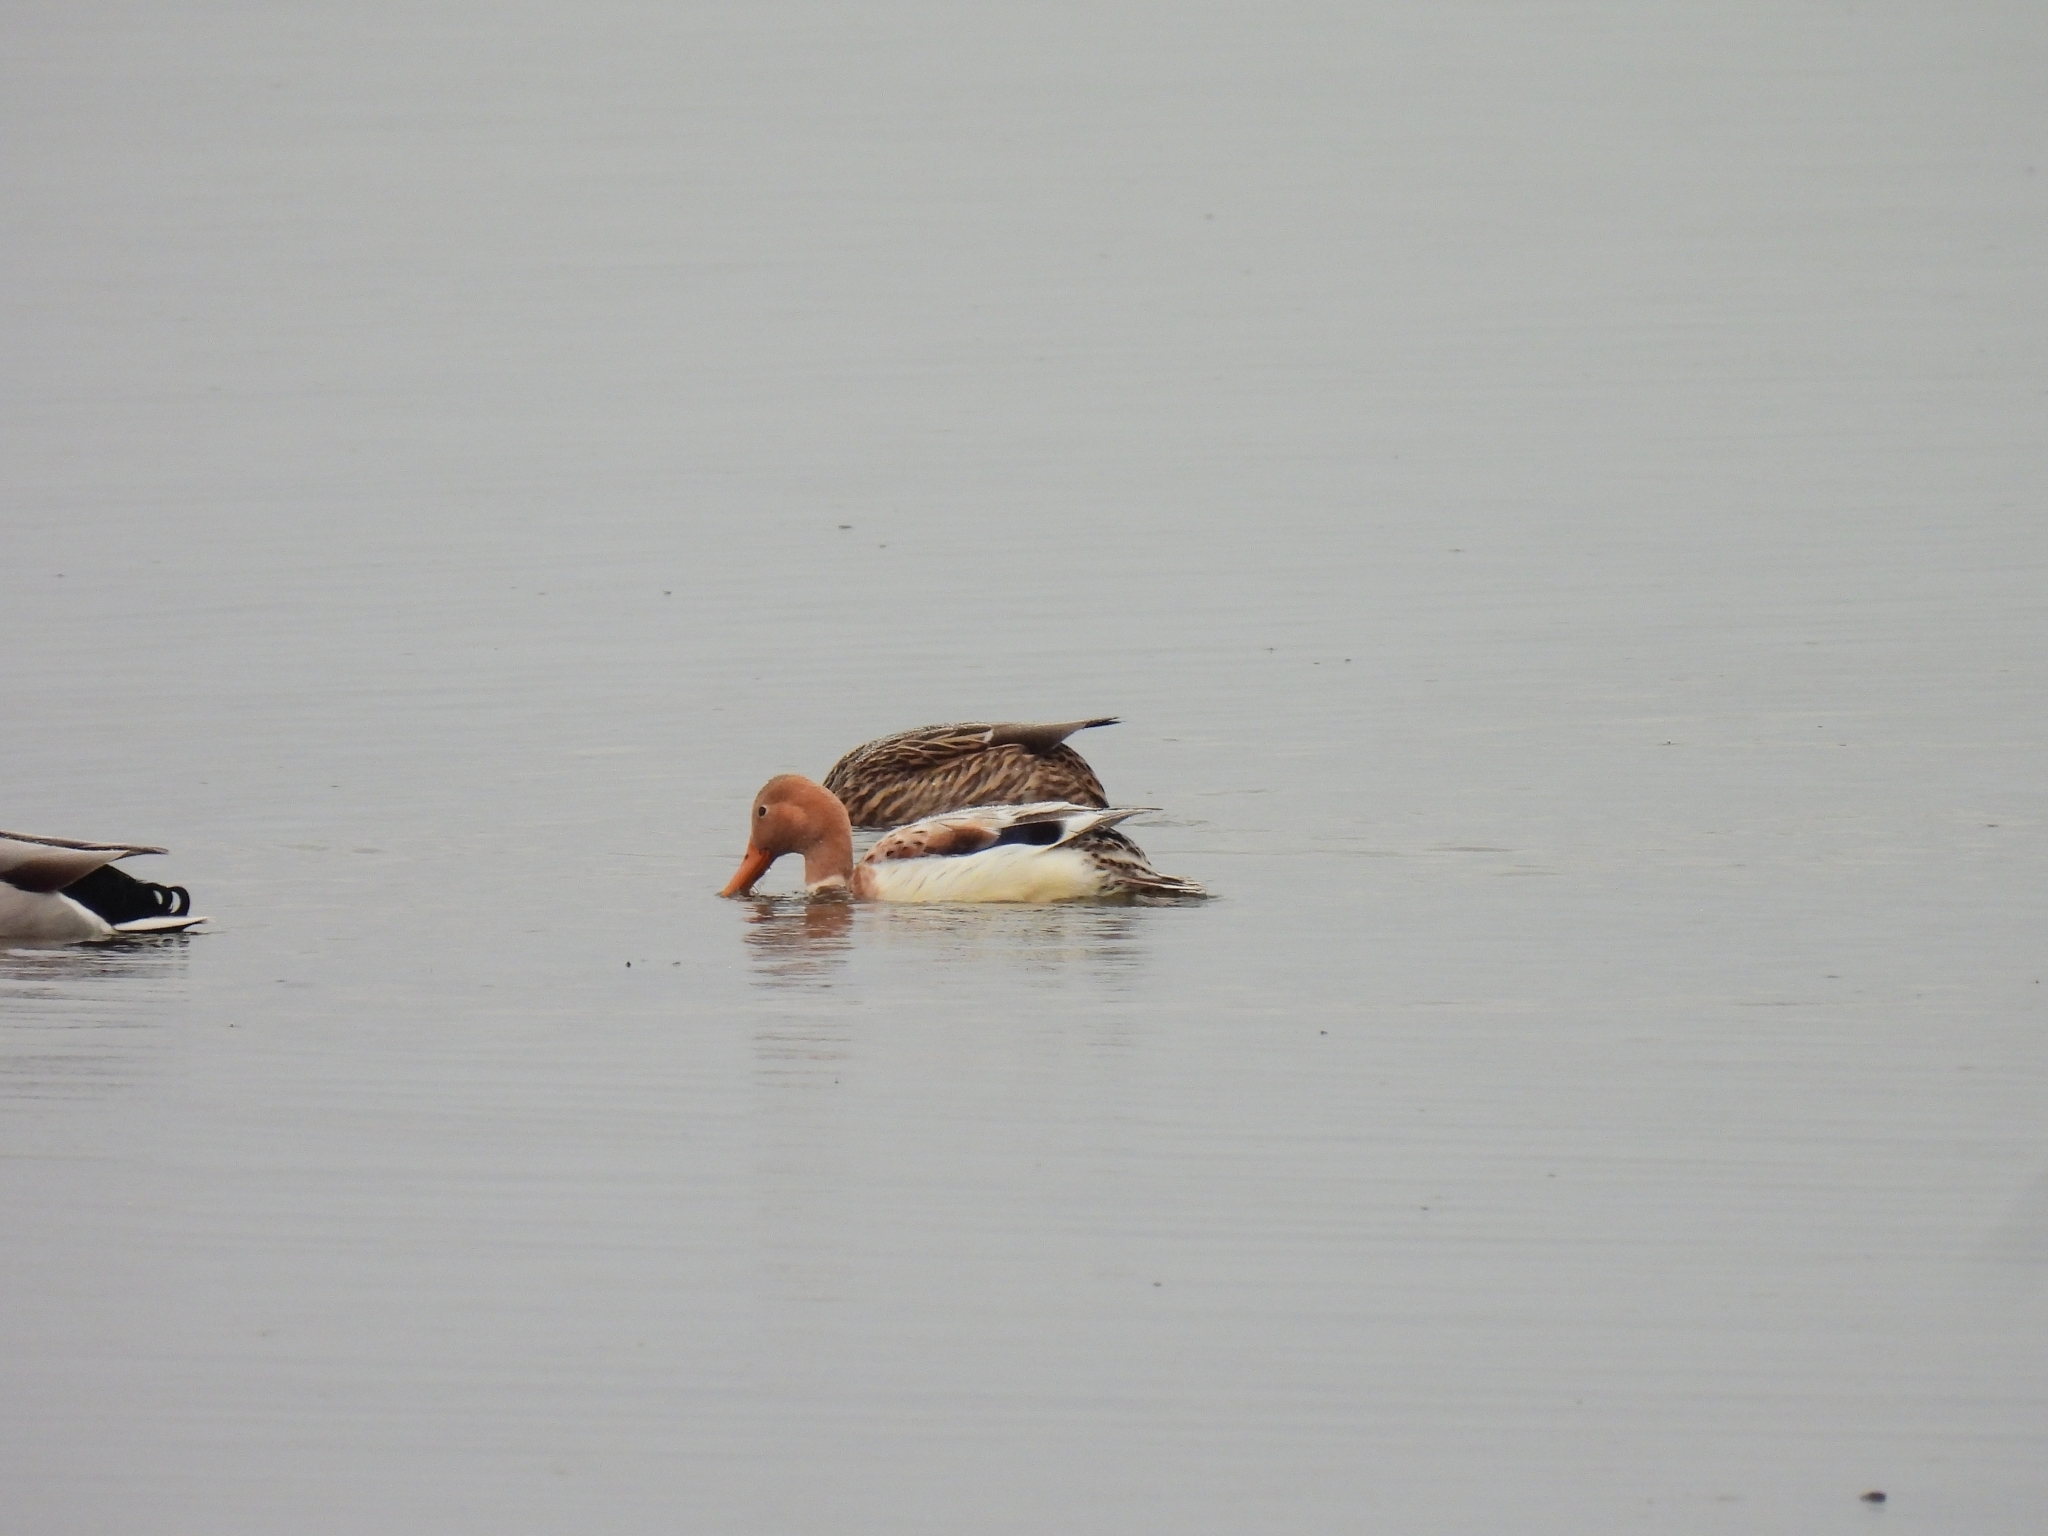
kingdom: Animalia
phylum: Chordata
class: Aves
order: Anseriformes
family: Anatidae
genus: Anas
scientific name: Anas platyrhynchos
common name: Mallard
